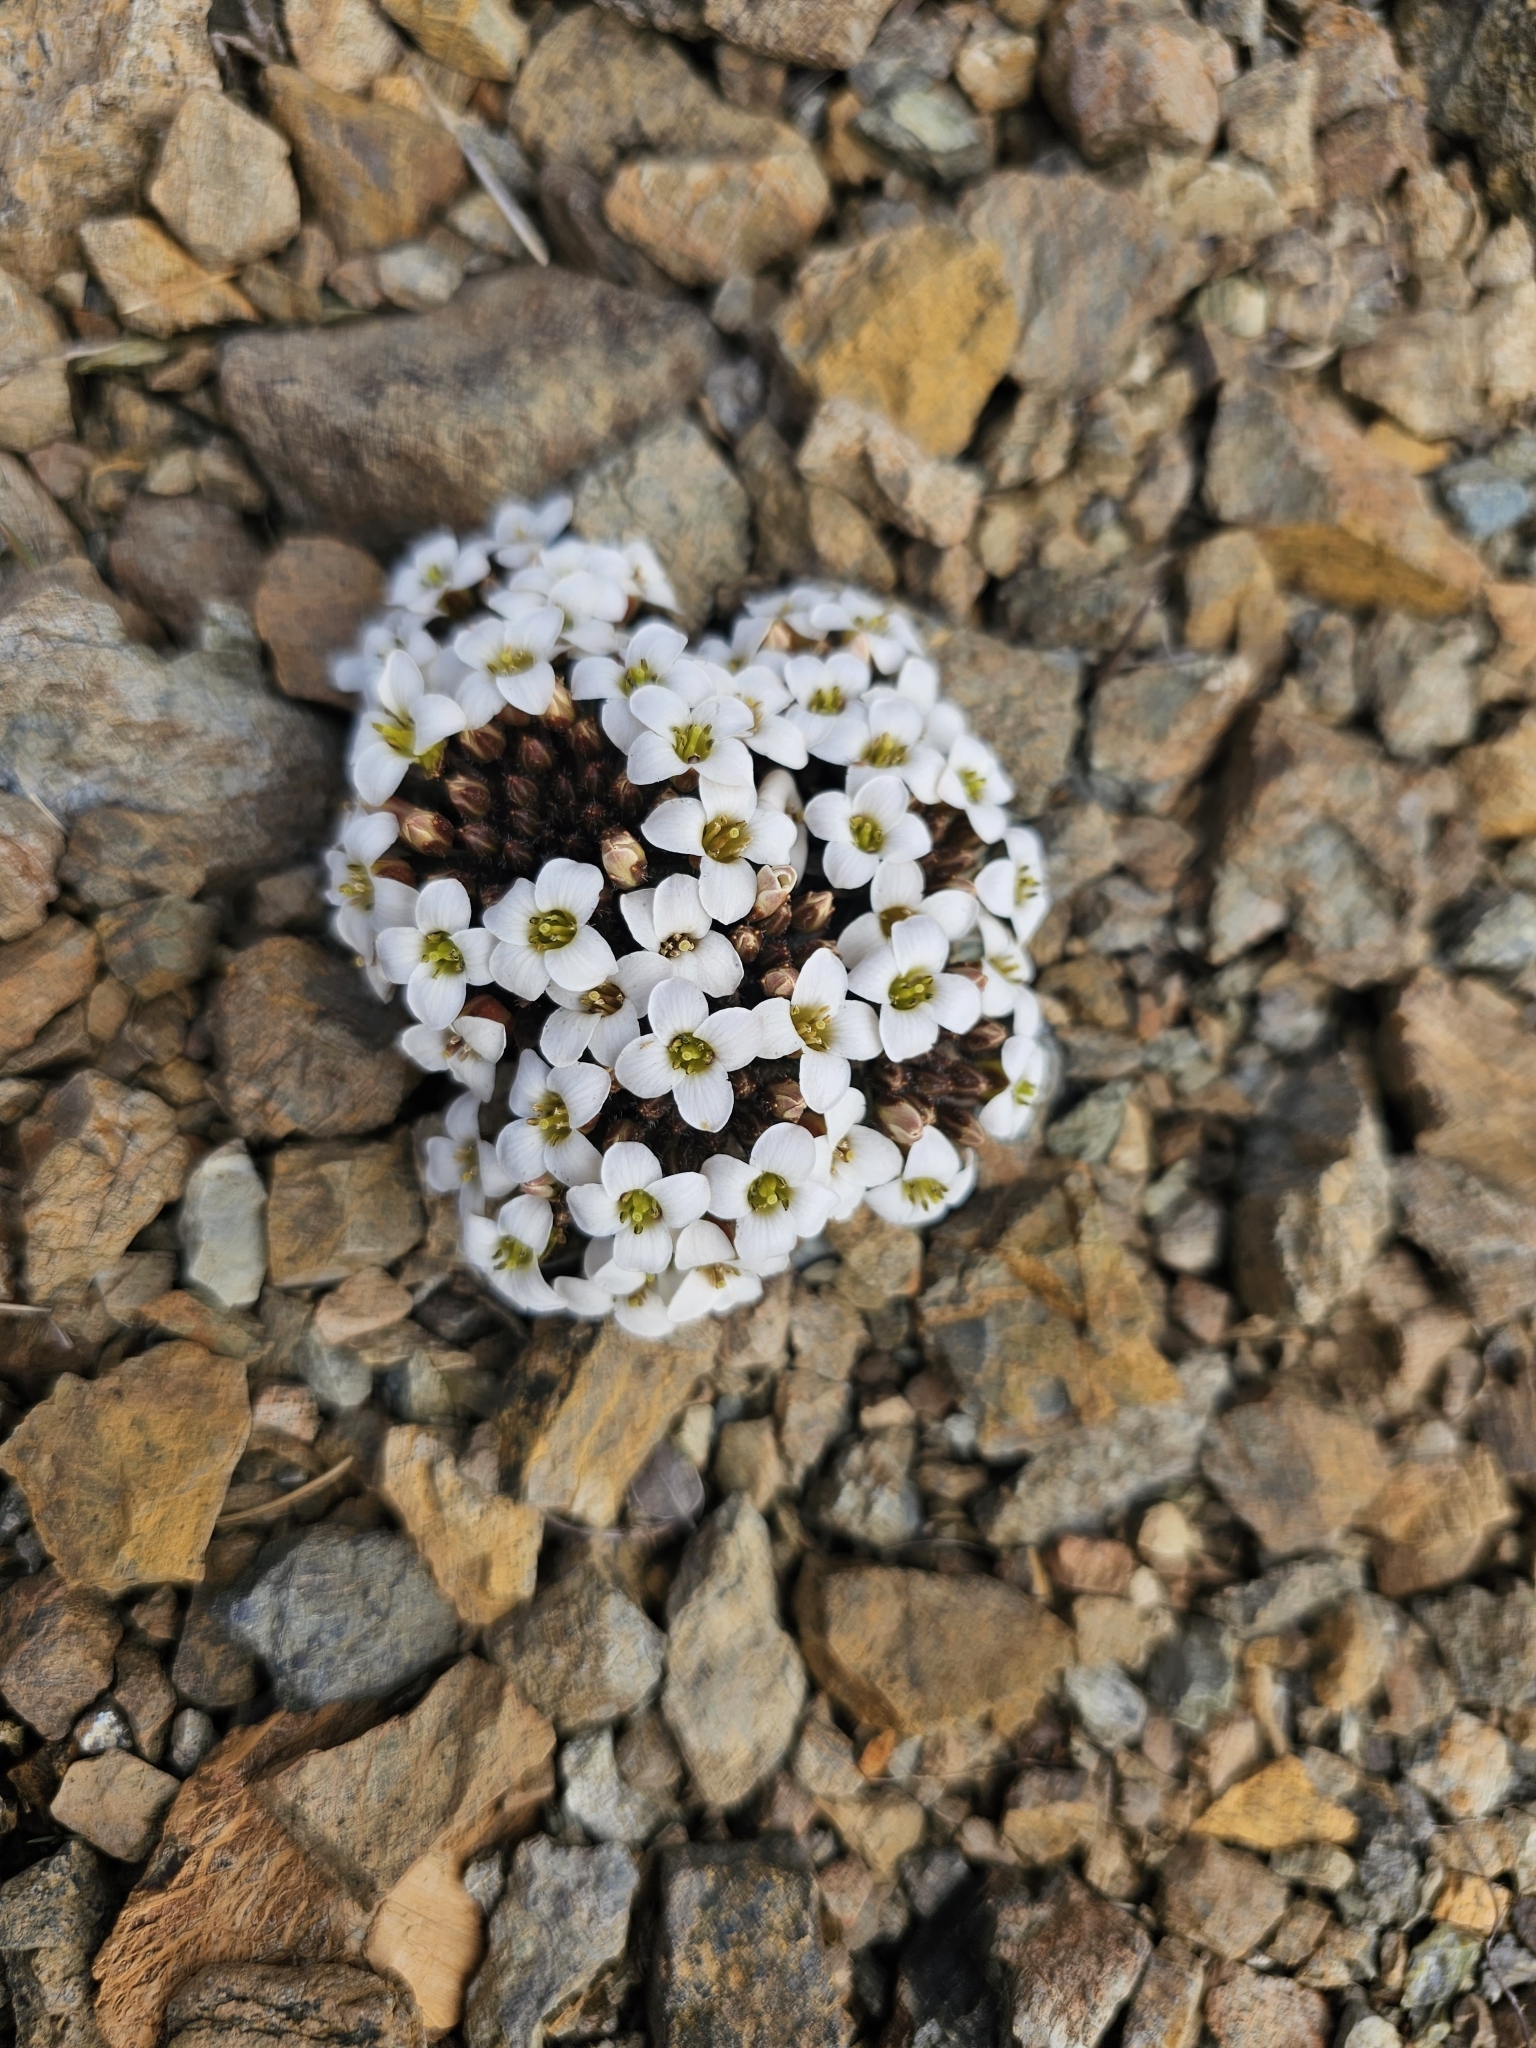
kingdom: Plantae
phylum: Tracheophyta
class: Magnoliopsida
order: Brassicales
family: Brassicaceae
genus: Notothlaspi
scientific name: Notothlaspi australe
